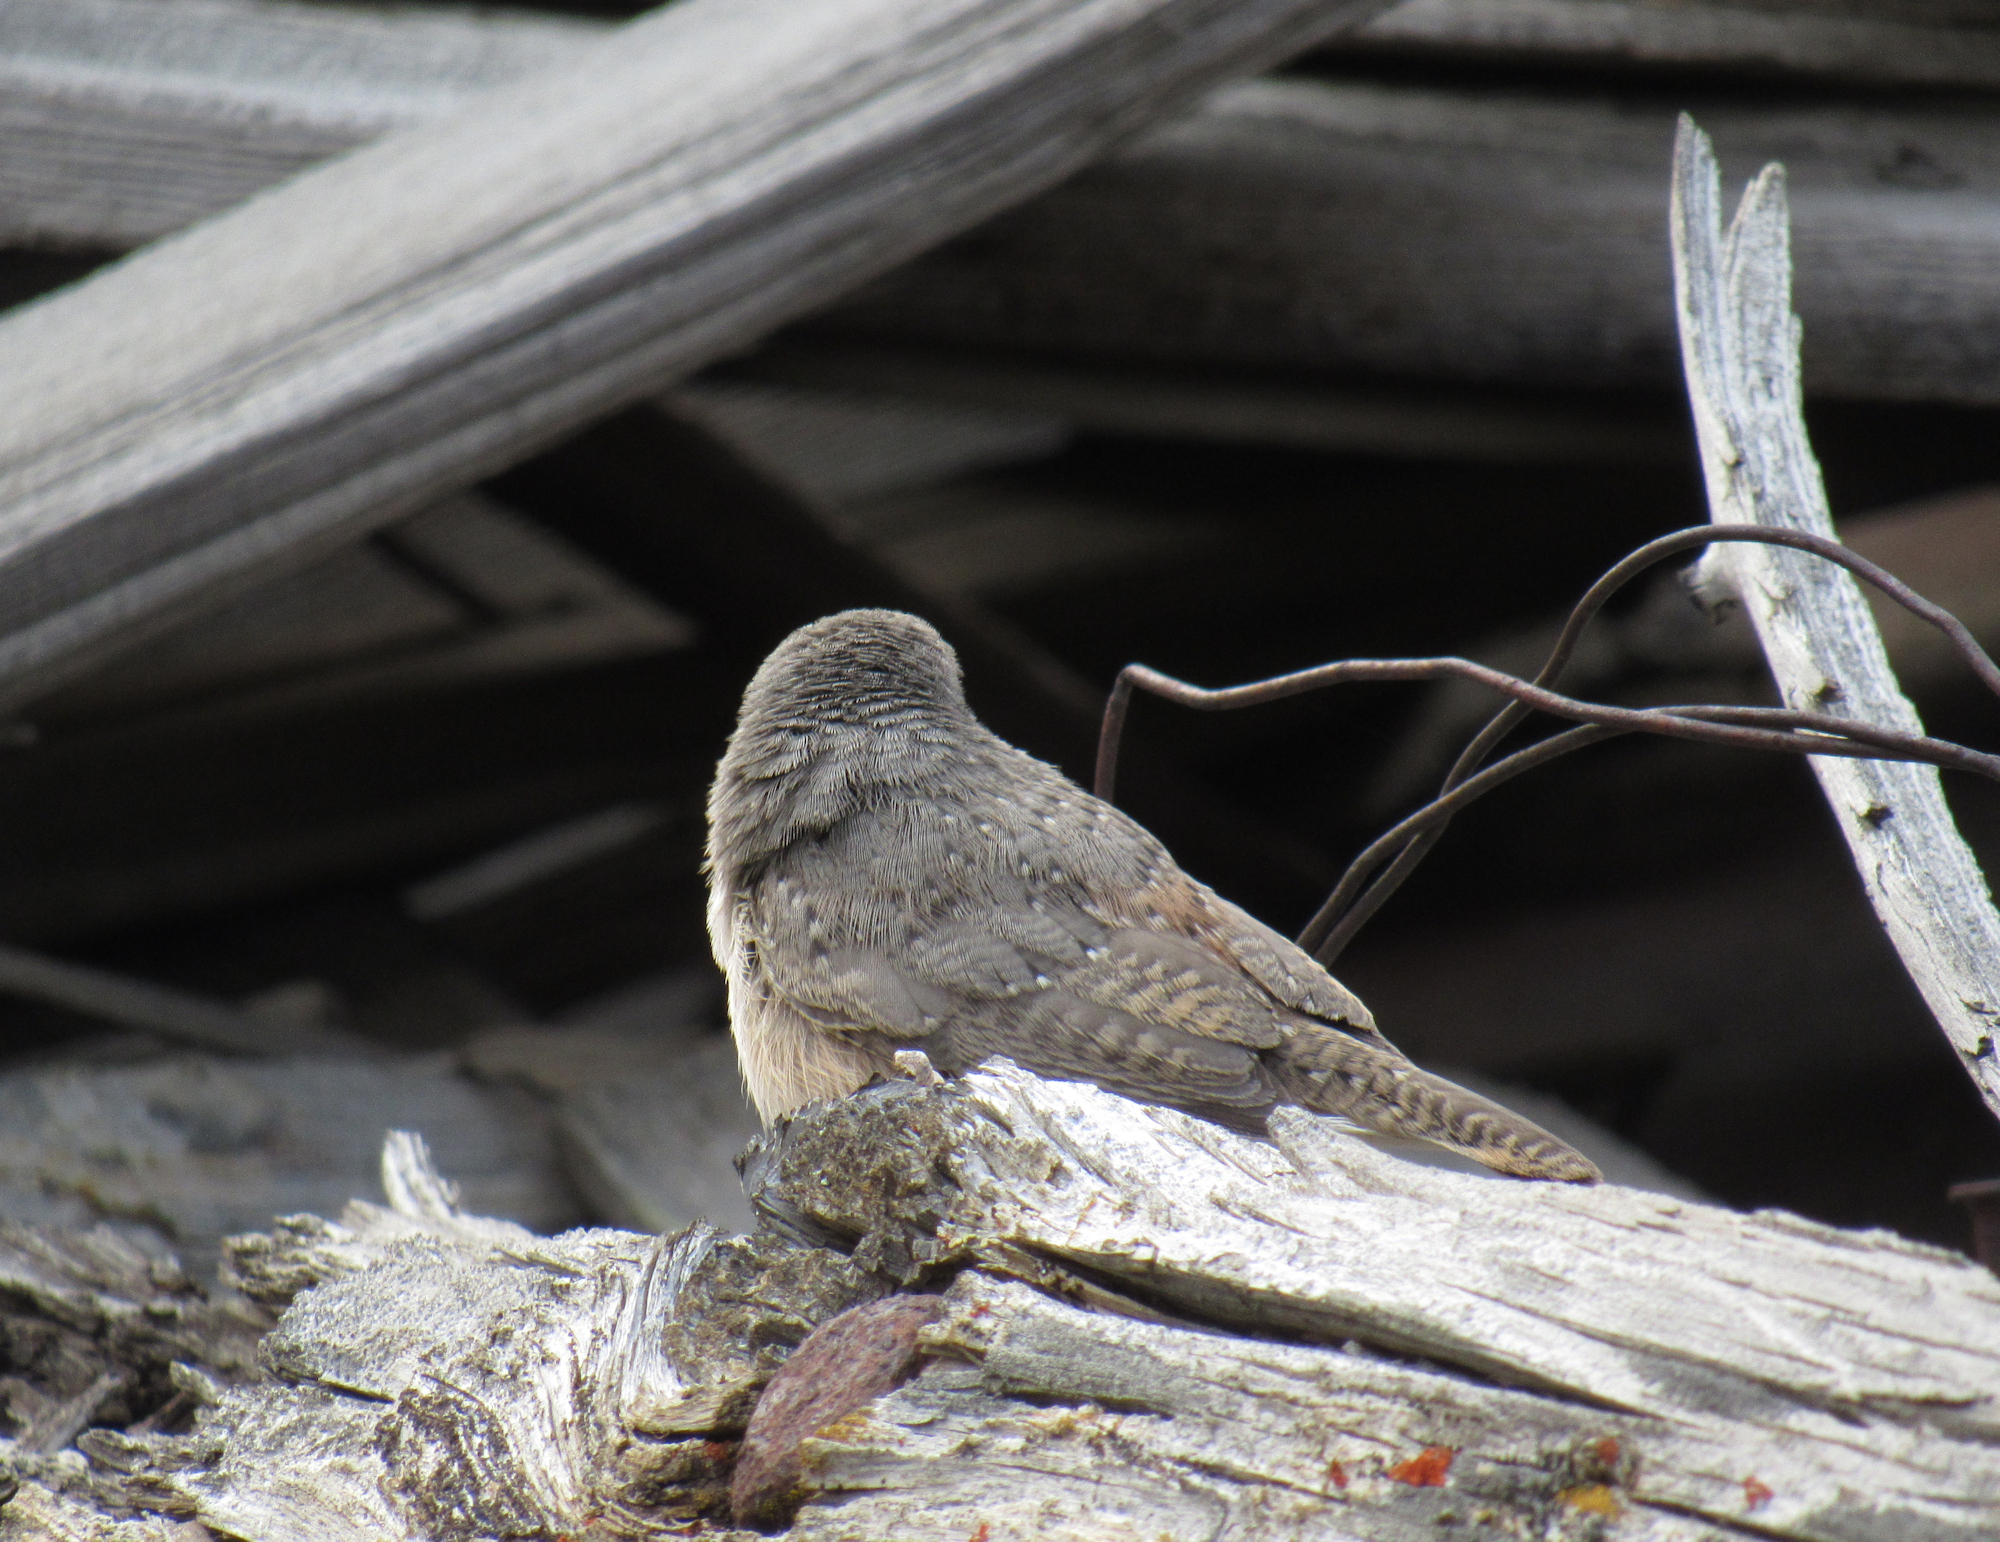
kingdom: Animalia
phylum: Chordata
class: Aves
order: Passeriformes
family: Troglodytidae
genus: Salpinctes
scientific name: Salpinctes obsoletus
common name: Rock wren
